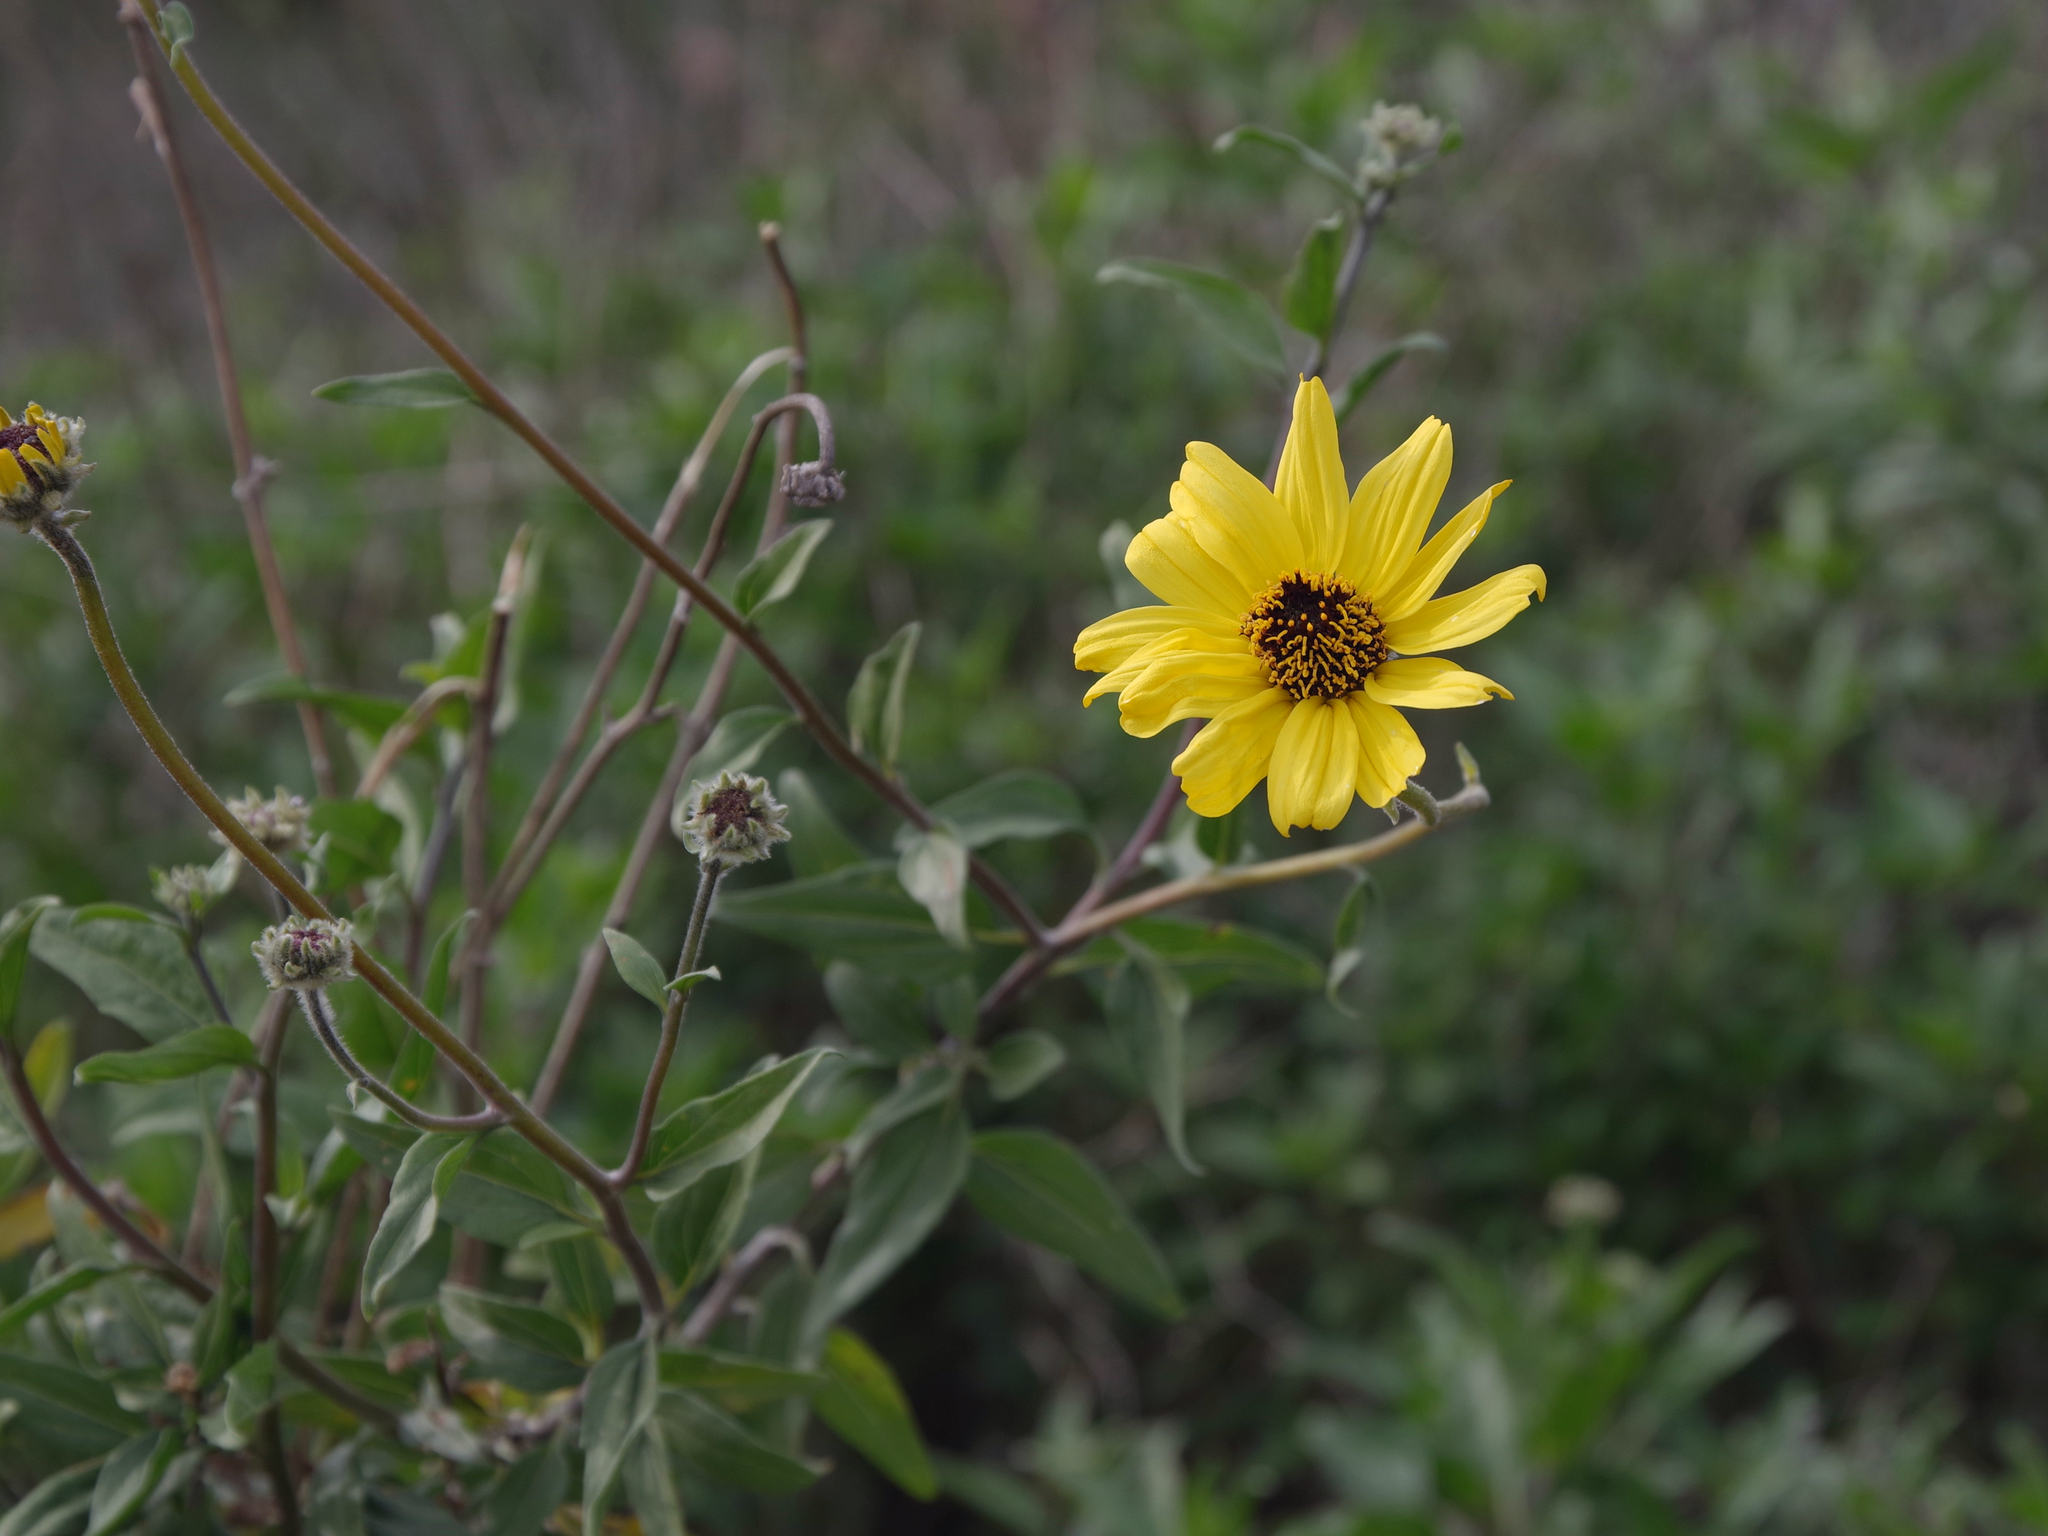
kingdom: Plantae
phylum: Tracheophyta
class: Magnoliopsida
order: Asterales
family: Asteraceae
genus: Encelia
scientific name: Encelia californica
